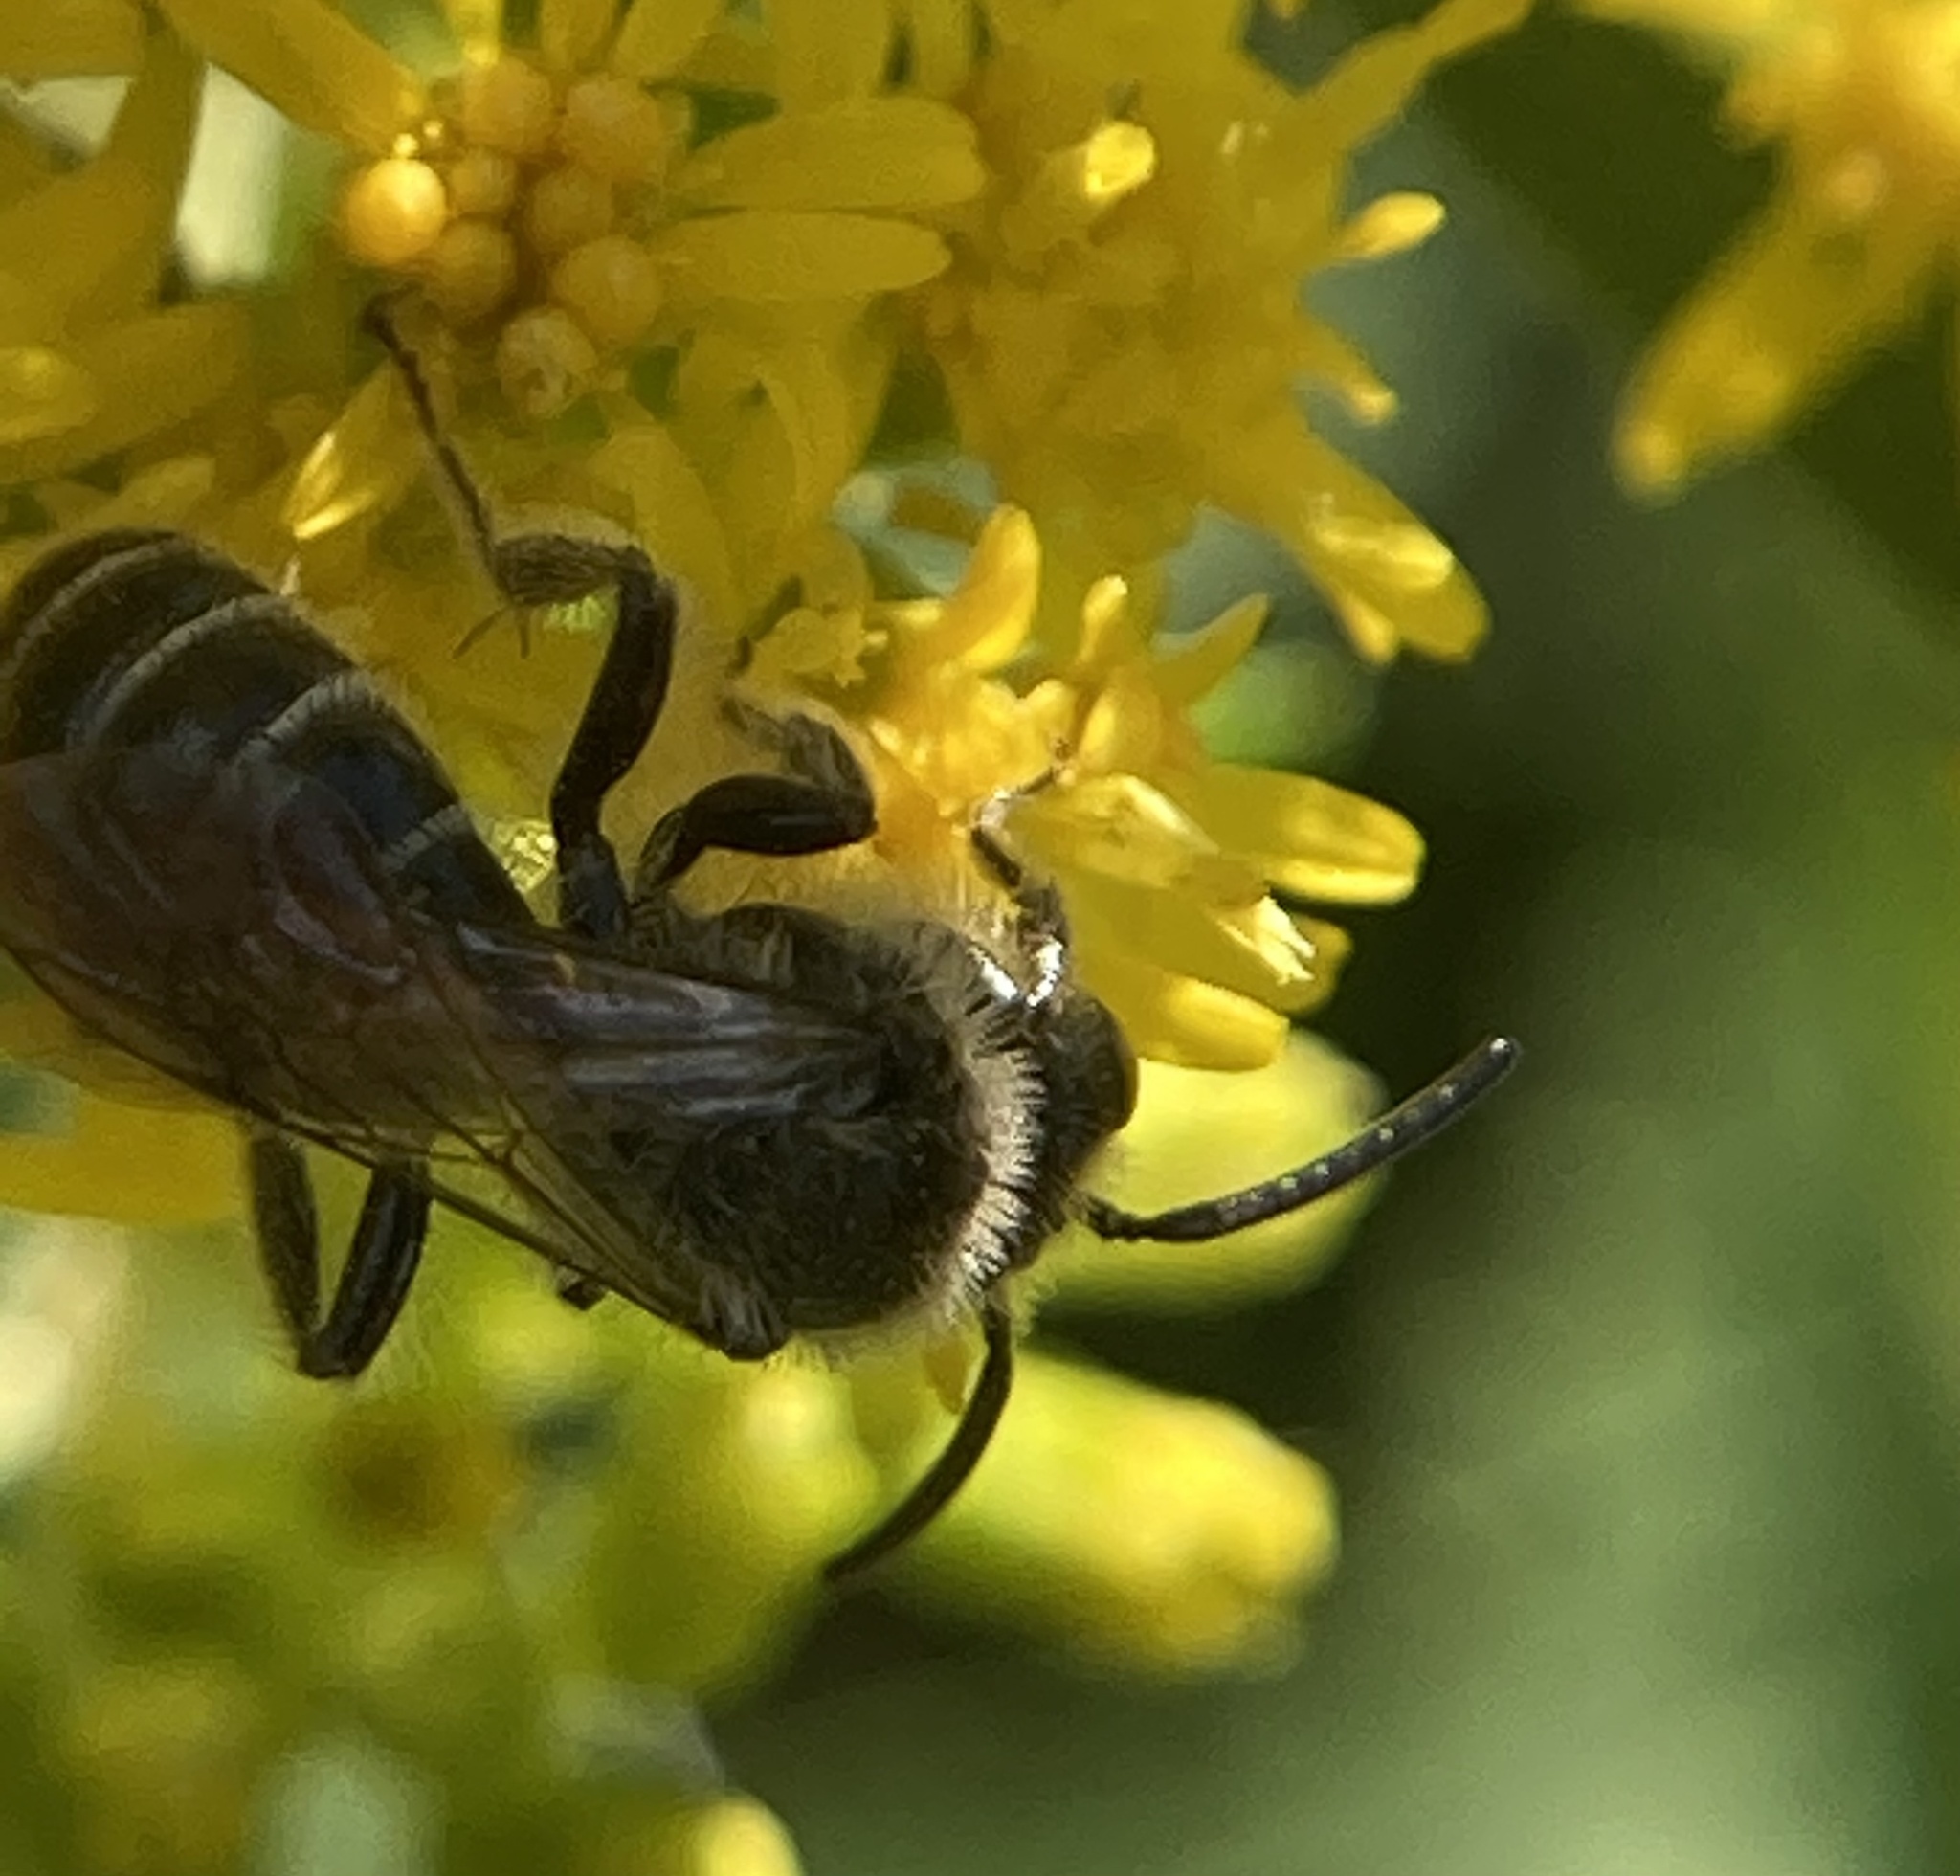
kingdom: Animalia
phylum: Arthropoda
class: Insecta
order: Hymenoptera
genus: Callandrena
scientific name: Callandrena
